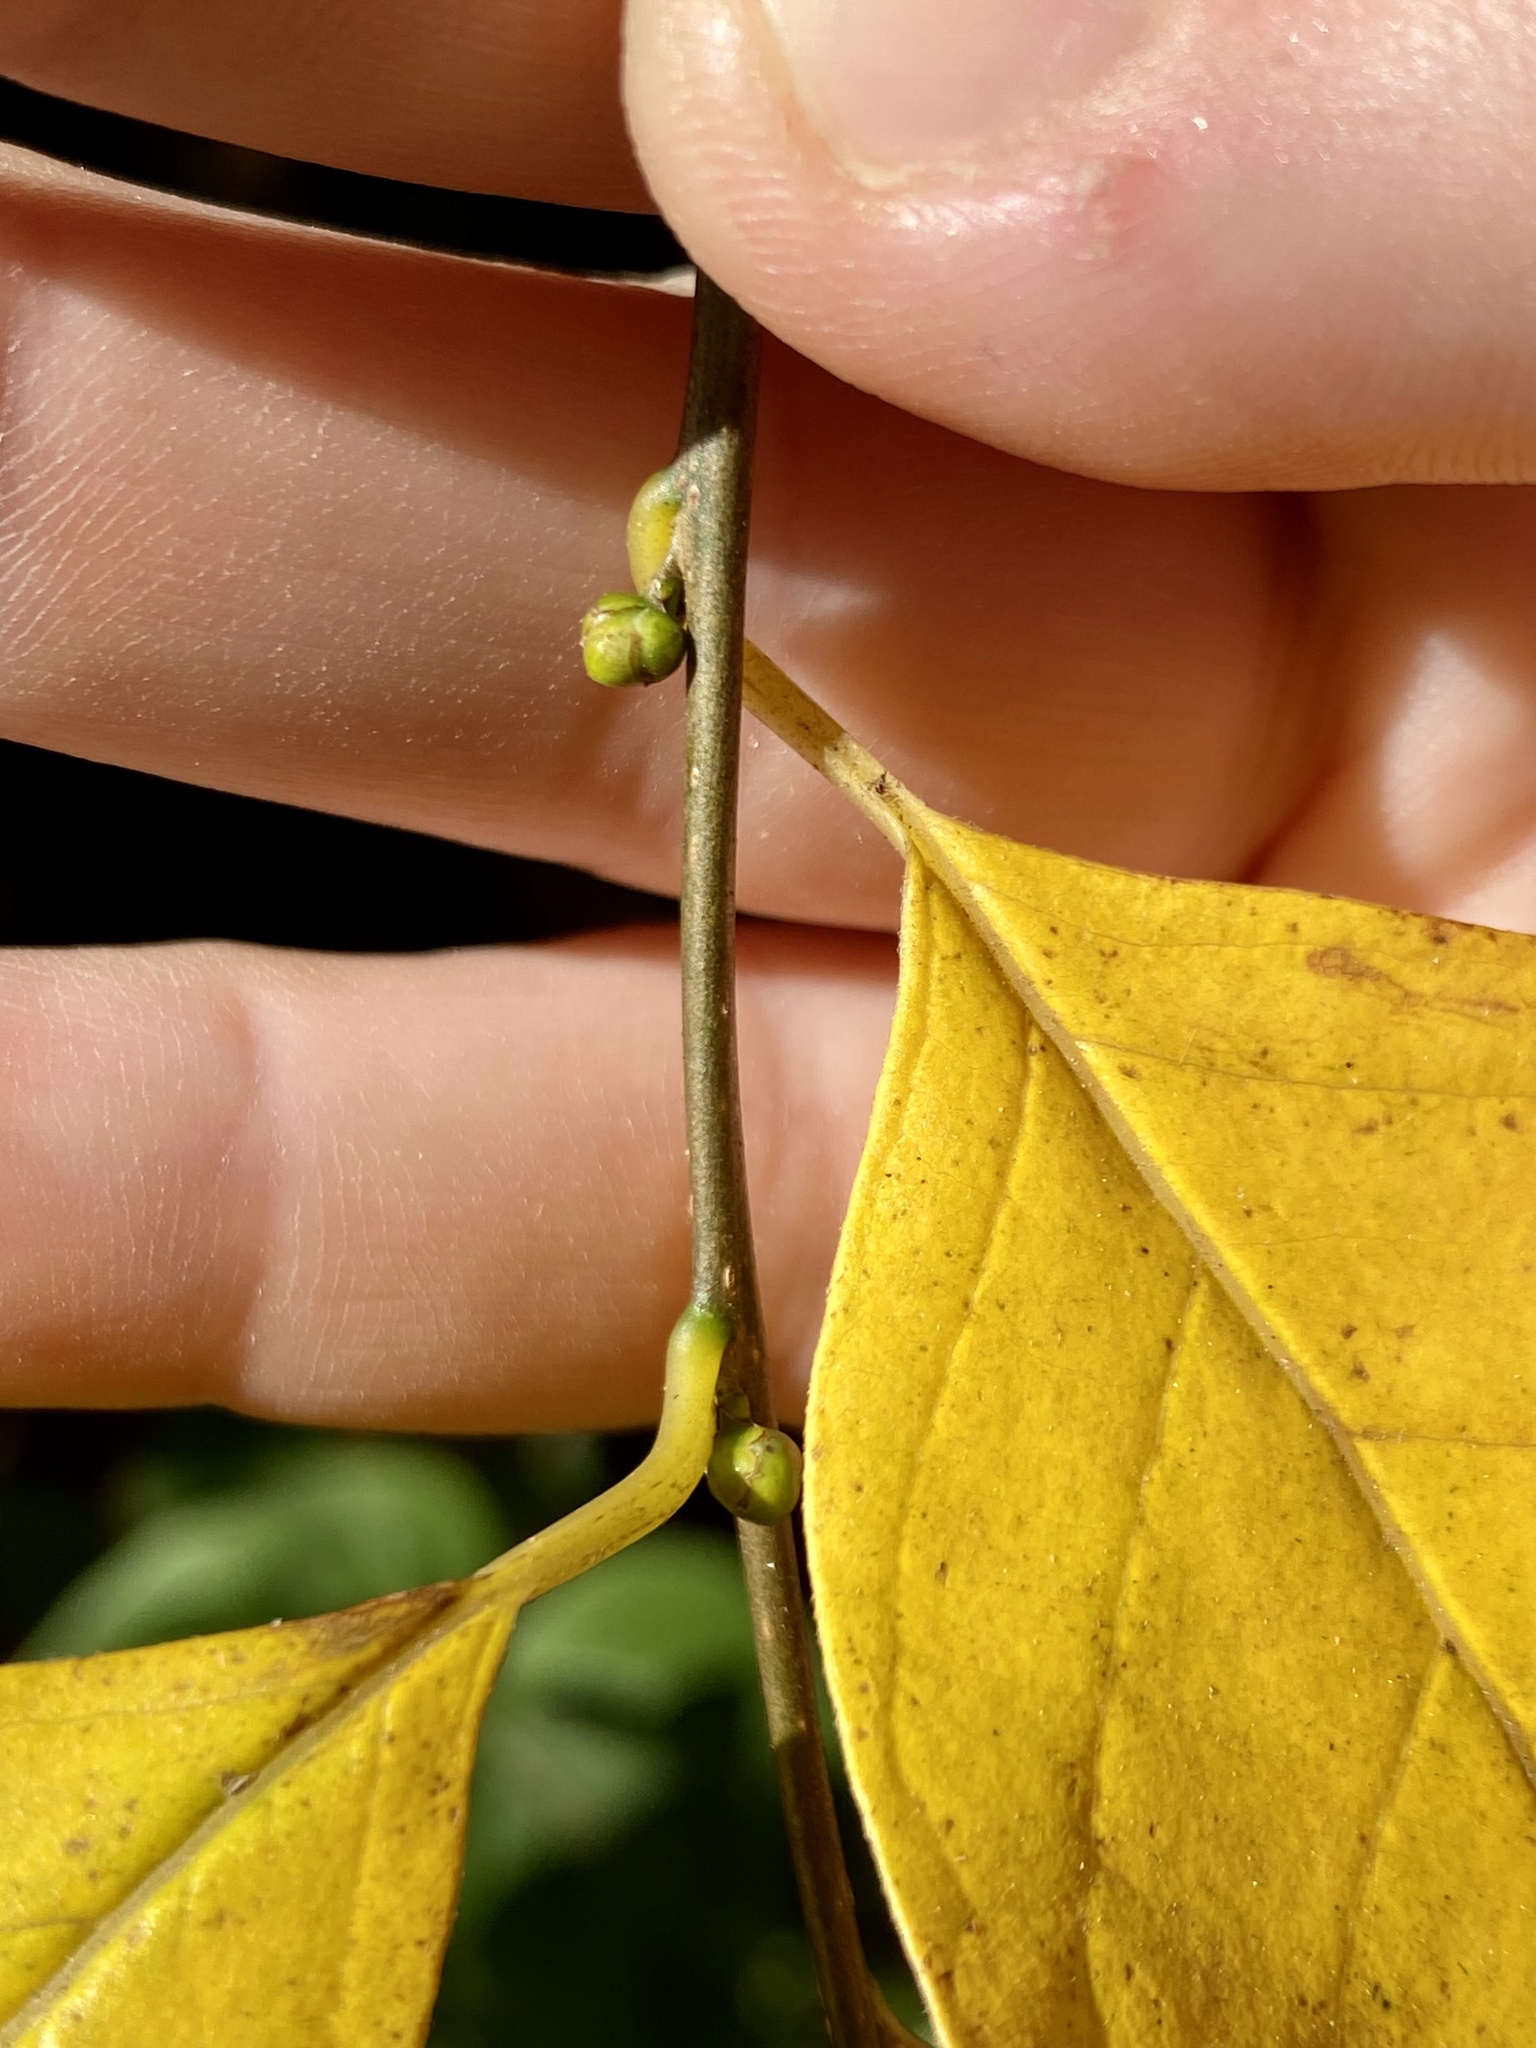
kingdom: Plantae
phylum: Tracheophyta
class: Magnoliopsida
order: Laurales
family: Lauraceae
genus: Lindera
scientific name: Lindera benzoin
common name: Spicebush
